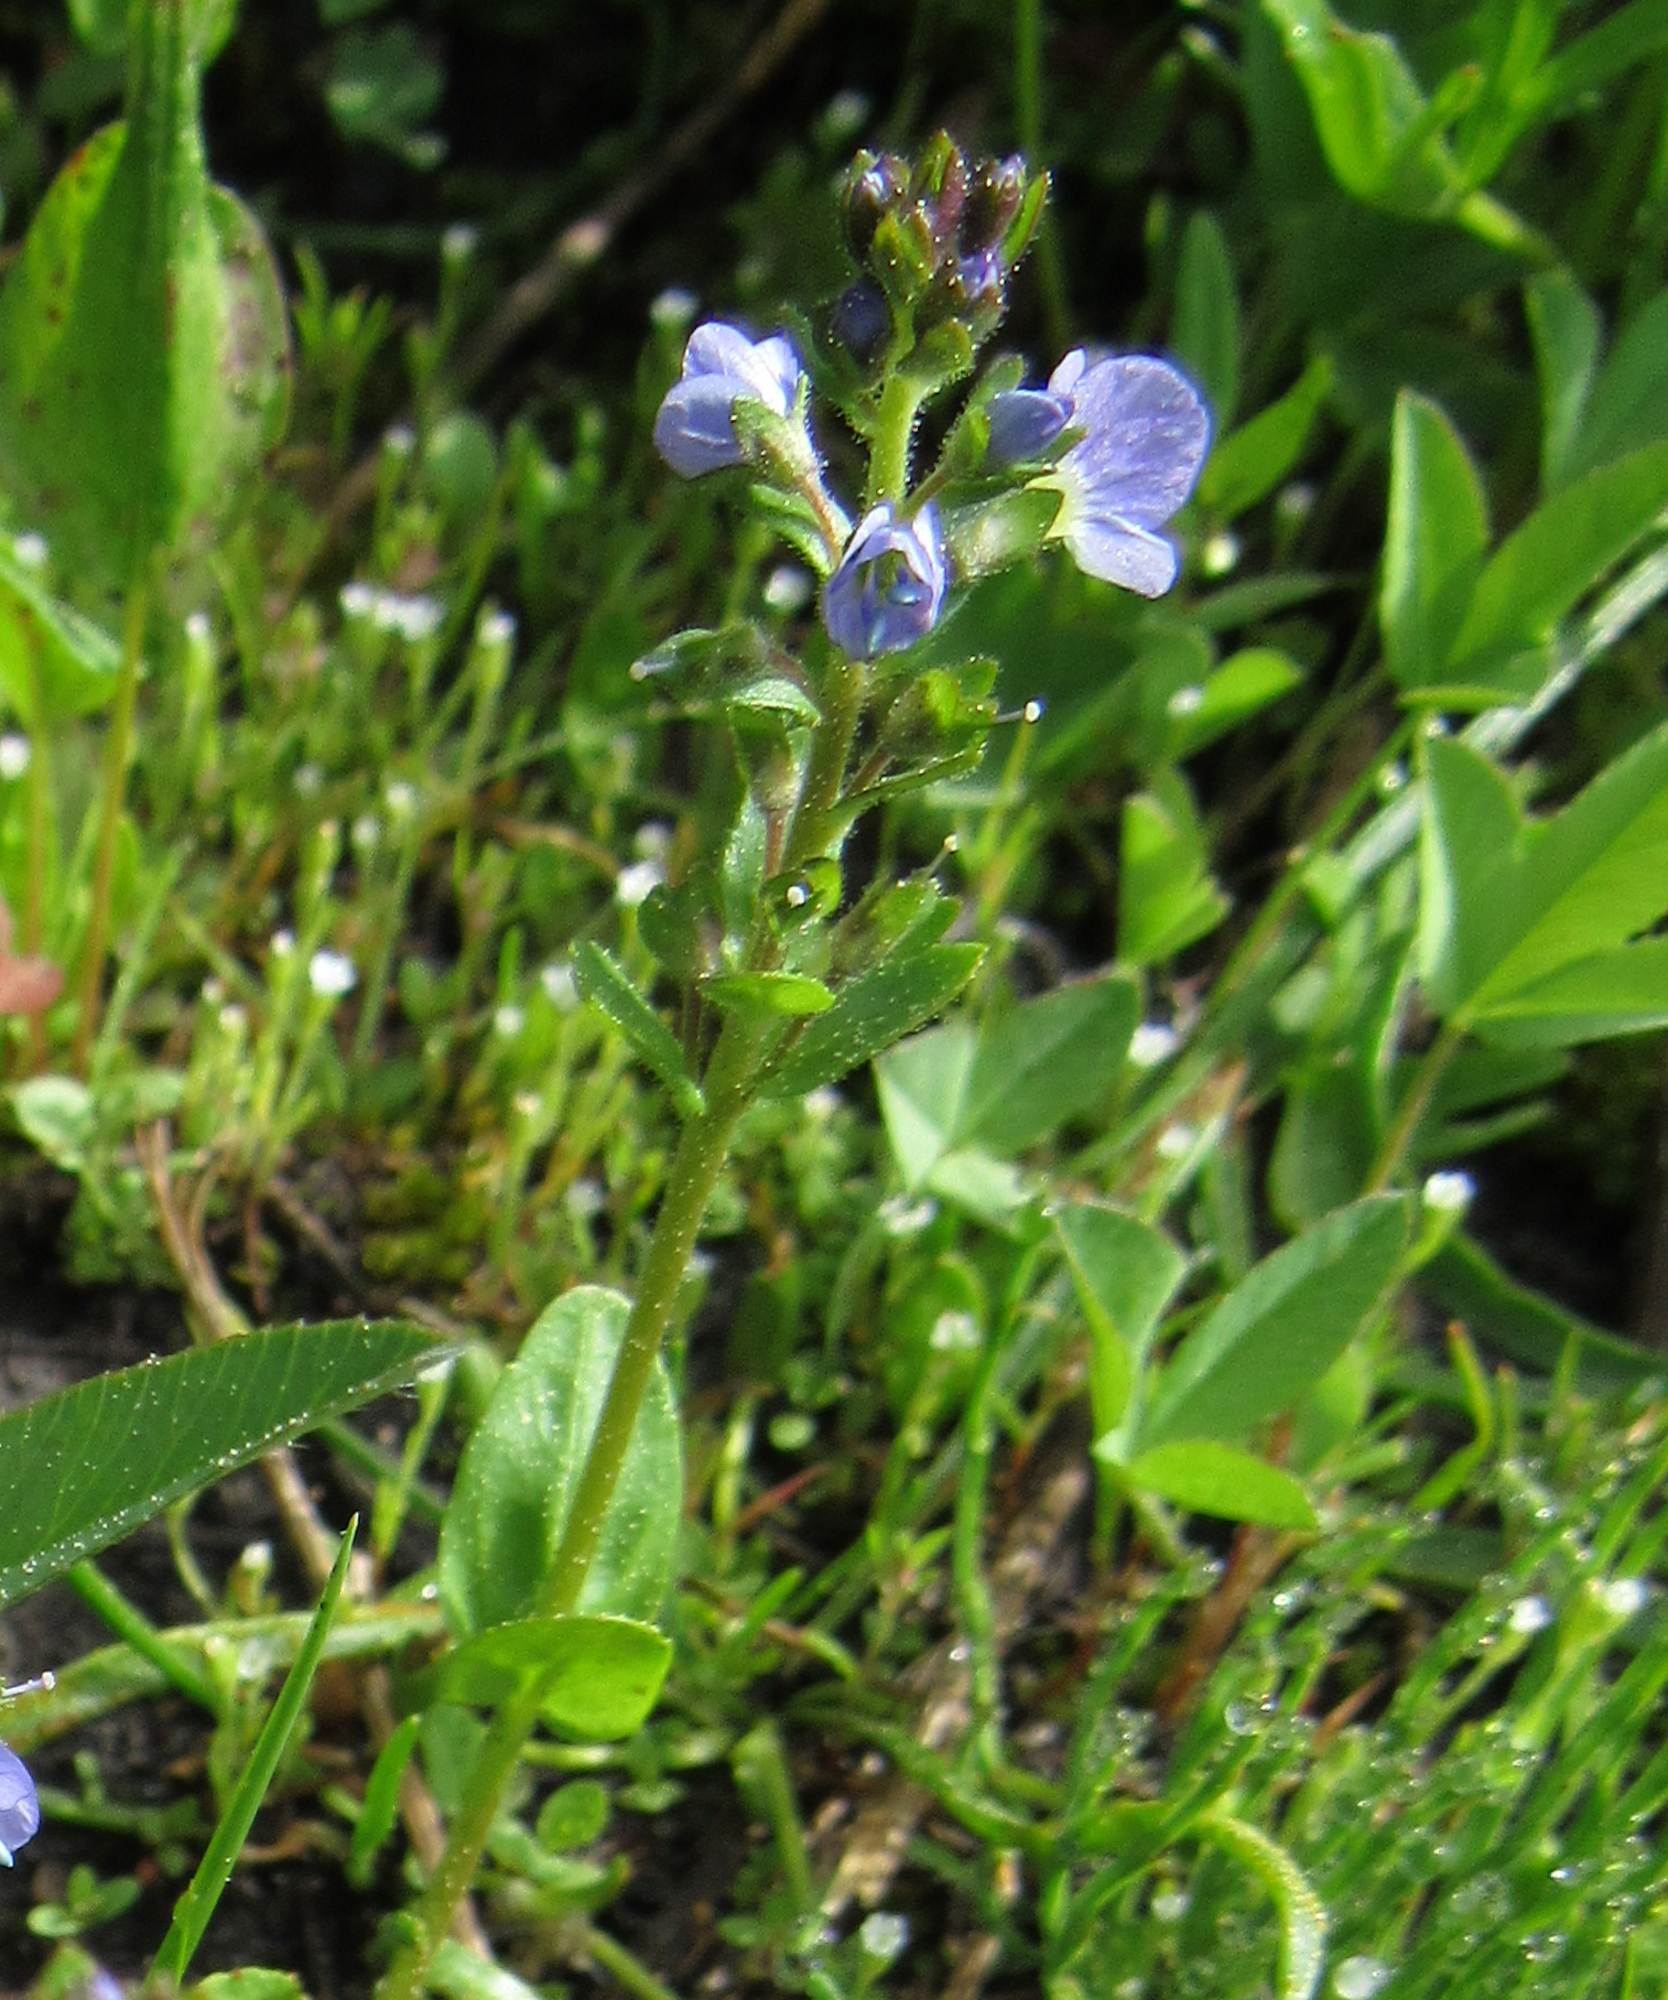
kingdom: Plantae
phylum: Tracheophyta
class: Magnoliopsida
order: Lamiales
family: Plantaginaceae
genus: Veronica
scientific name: Veronica serpyllifolia
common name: Thyme-leaved speedwell
